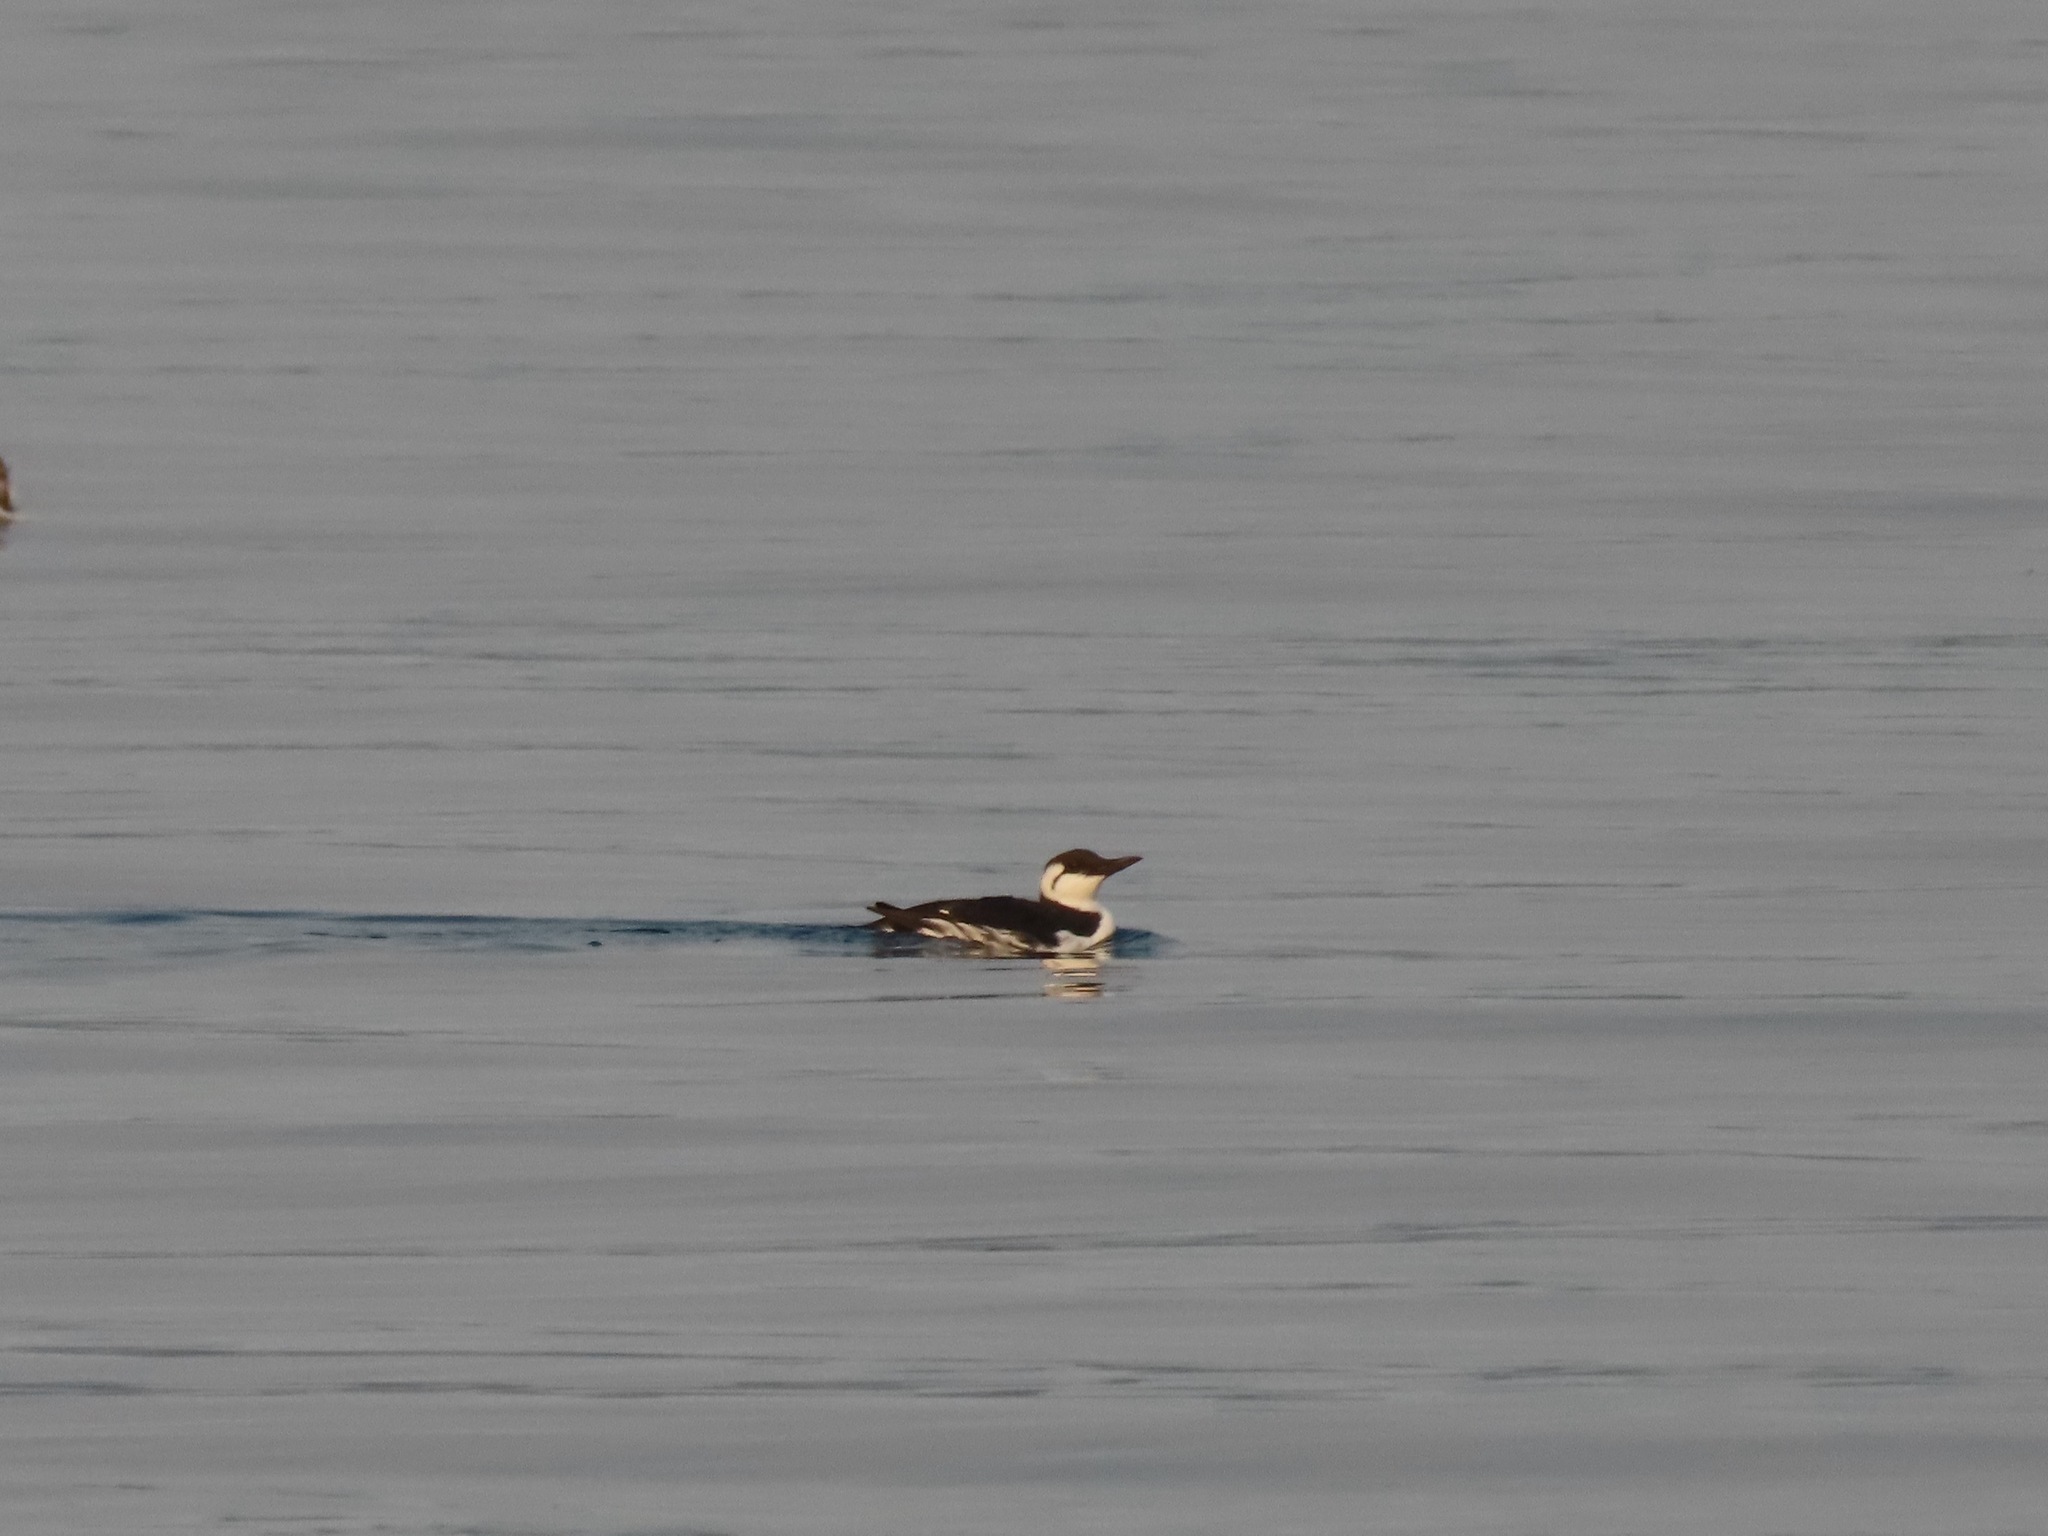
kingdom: Animalia
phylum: Chordata
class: Aves
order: Charadriiformes
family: Alcidae
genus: Uria
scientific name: Uria aalge
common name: Common murre
